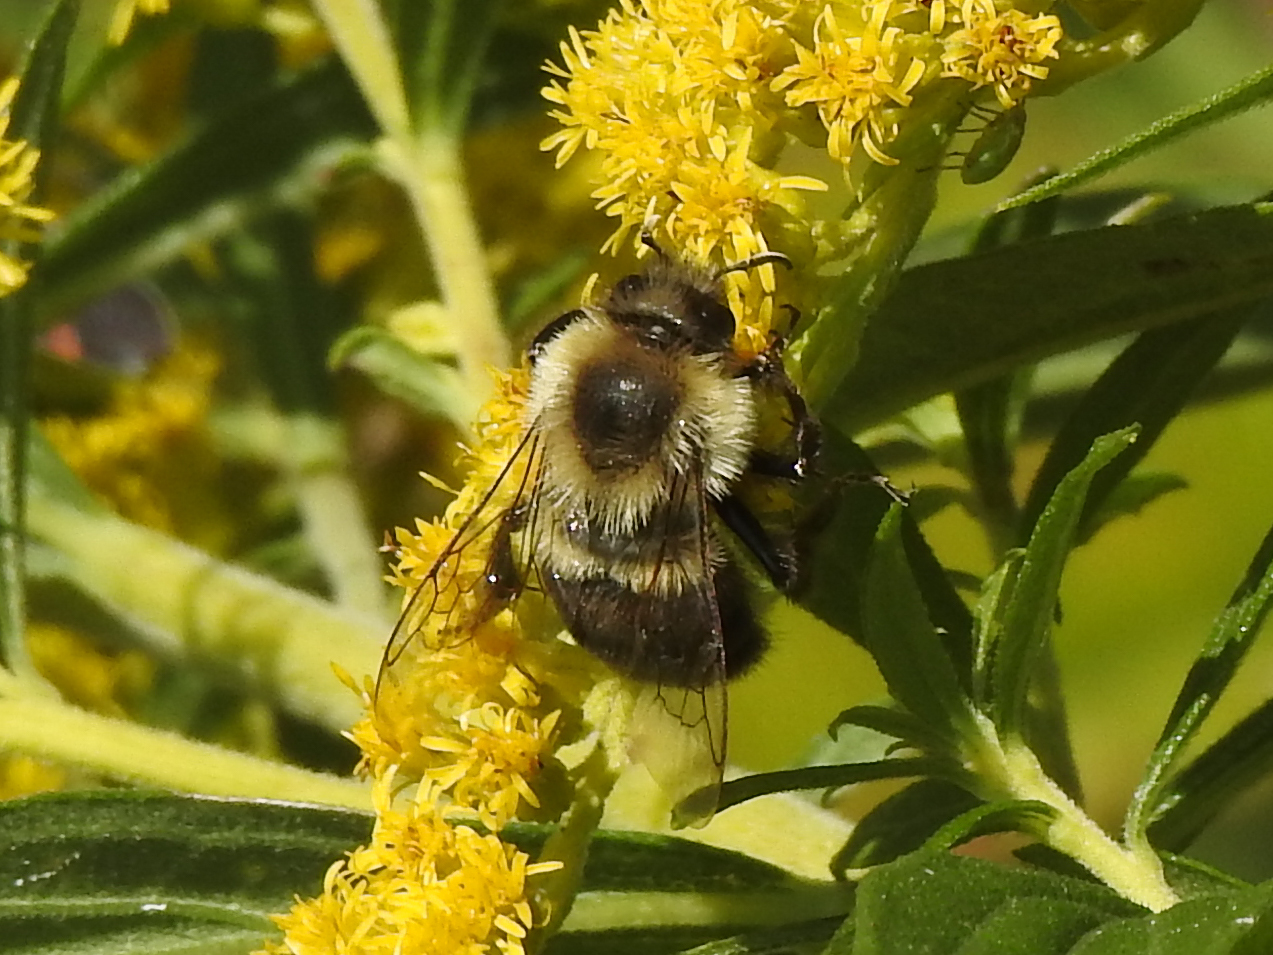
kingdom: Animalia
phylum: Arthropoda
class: Insecta
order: Hymenoptera
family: Apidae
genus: Bombus
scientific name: Bombus impatiens
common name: Common eastern bumble bee
